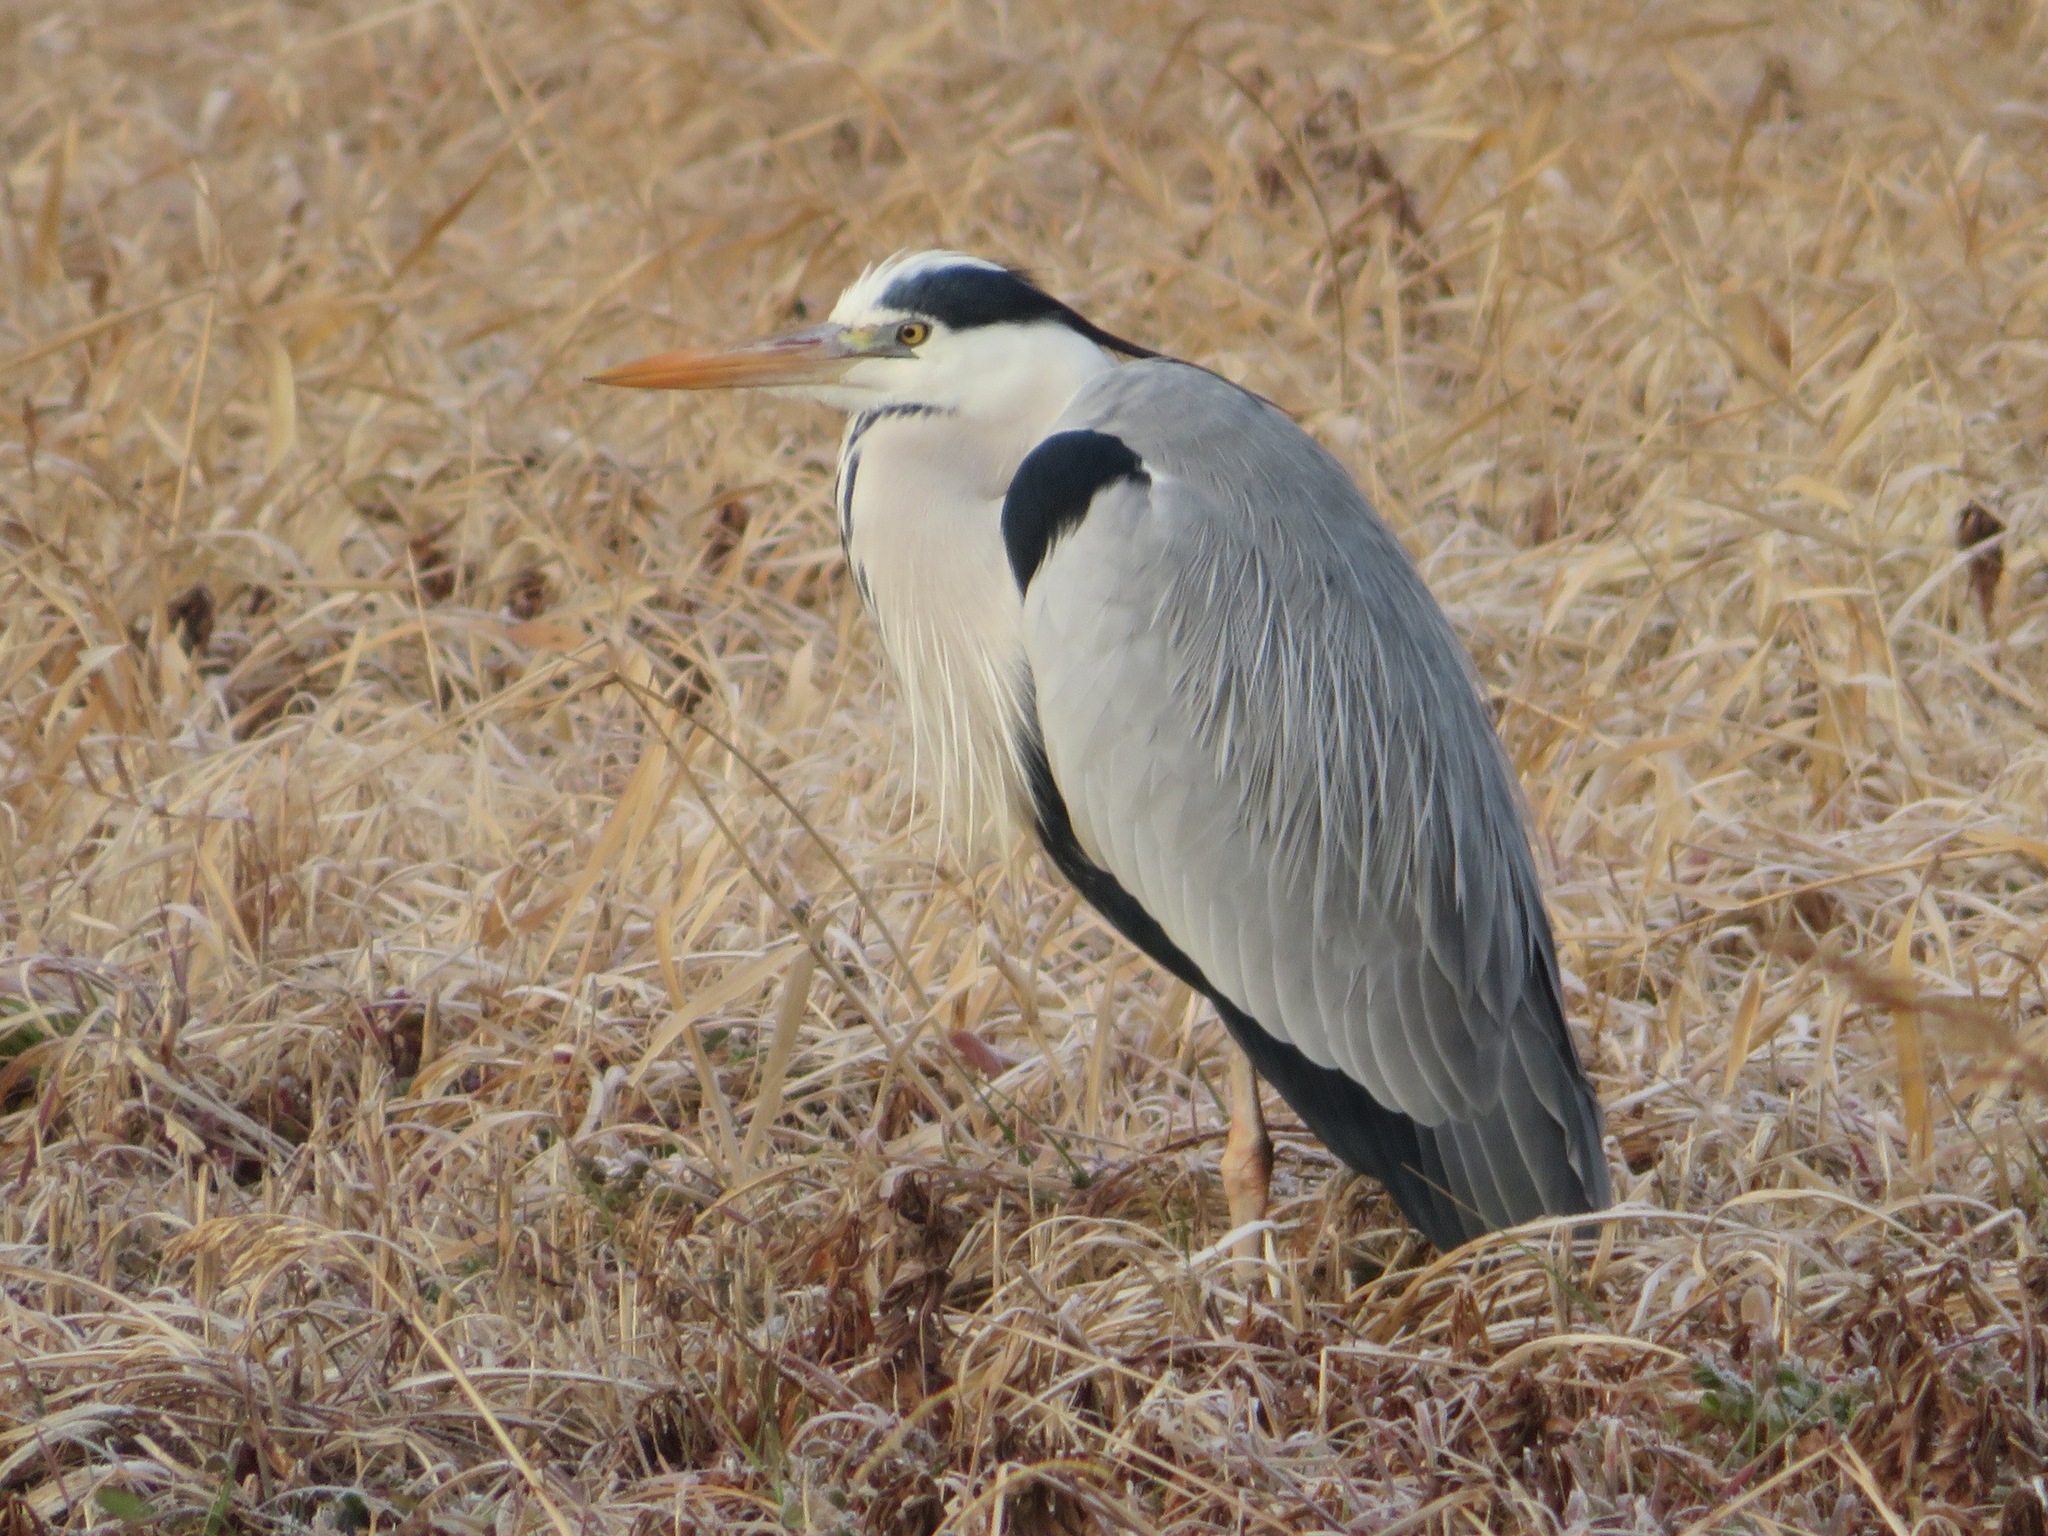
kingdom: Animalia
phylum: Chordata
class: Aves
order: Pelecaniformes
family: Ardeidae
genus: Ardea
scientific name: Ardea cinerea
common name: Grey heron
